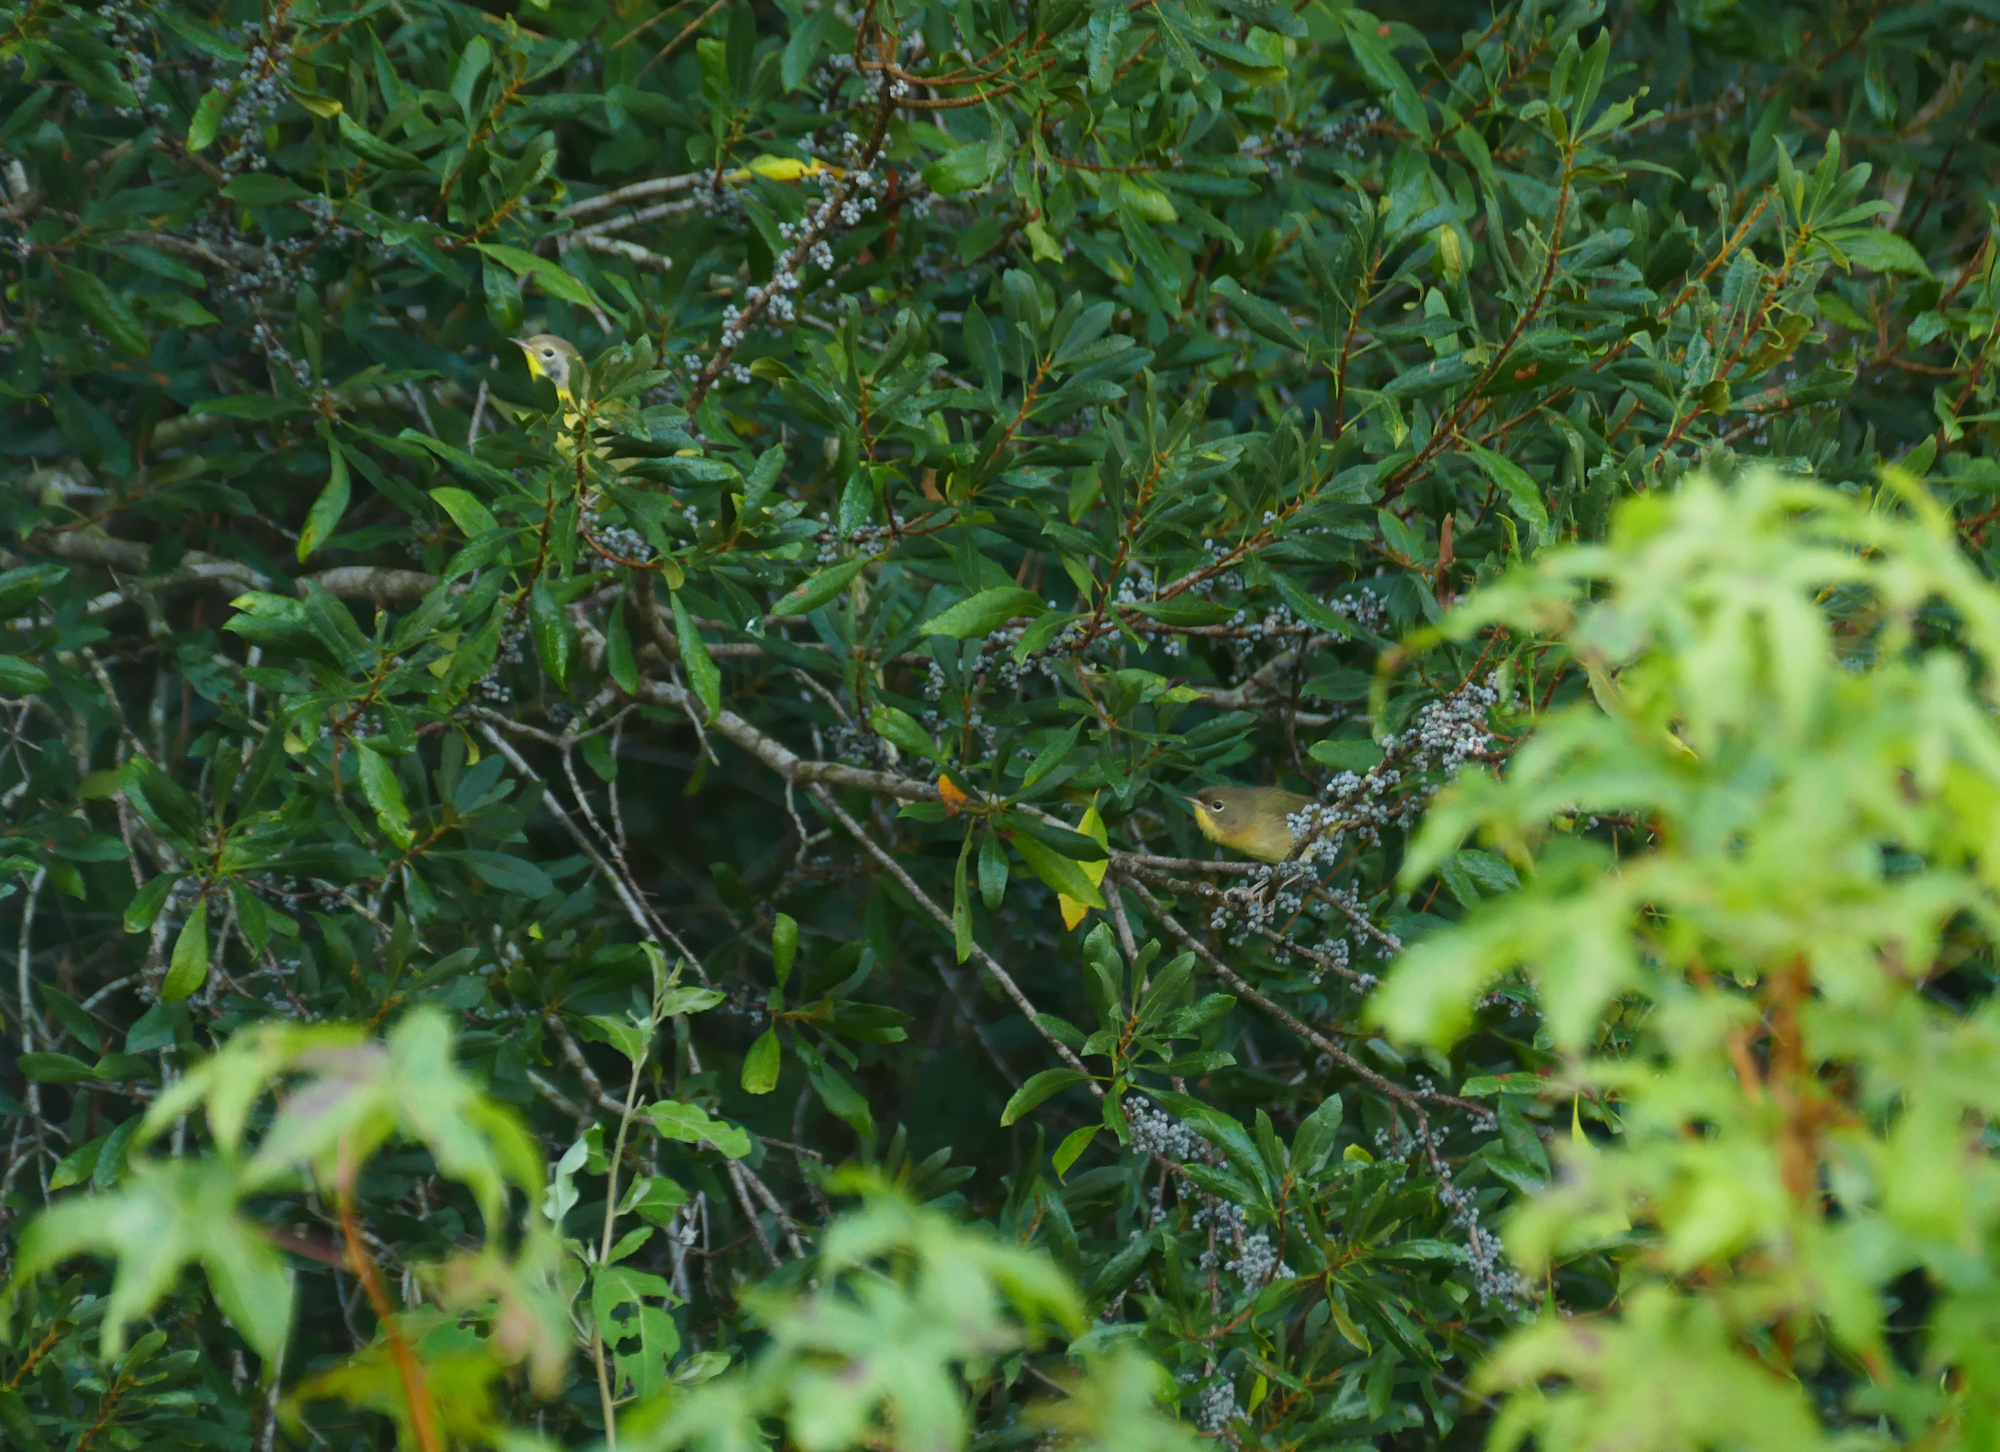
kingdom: Animalia
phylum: Chordata
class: Aves
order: Passeriformes
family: Parulidae
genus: Geothlypis
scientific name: Geothlypis trichas
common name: Common yellowthroat
